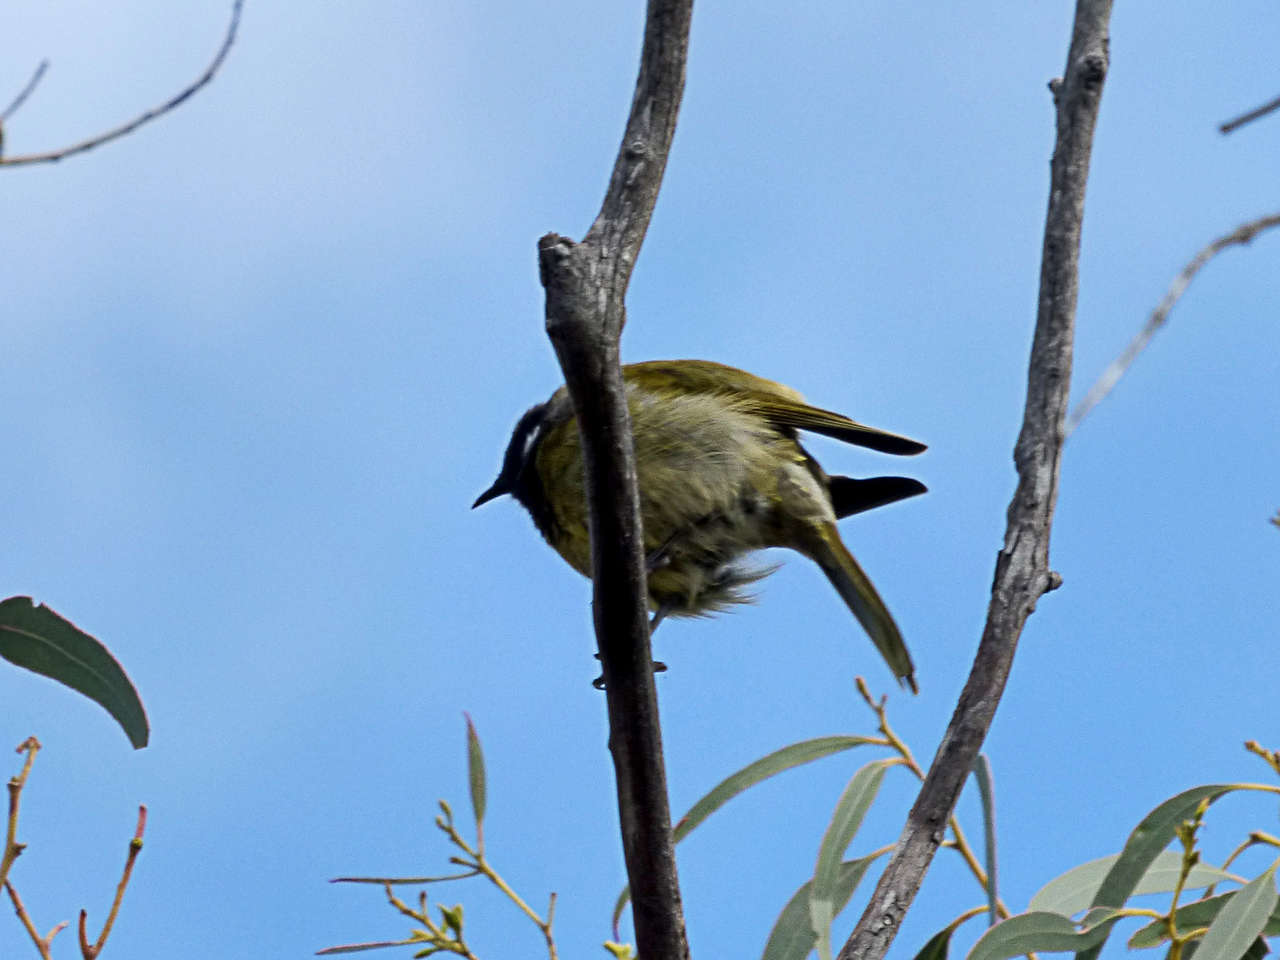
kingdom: Animalia
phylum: Chordata
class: Aves
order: Passeriformes
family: Meliphagidae
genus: Nesoptilotis
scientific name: Nesoptilotis leucotis
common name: White-eared honeyeater
